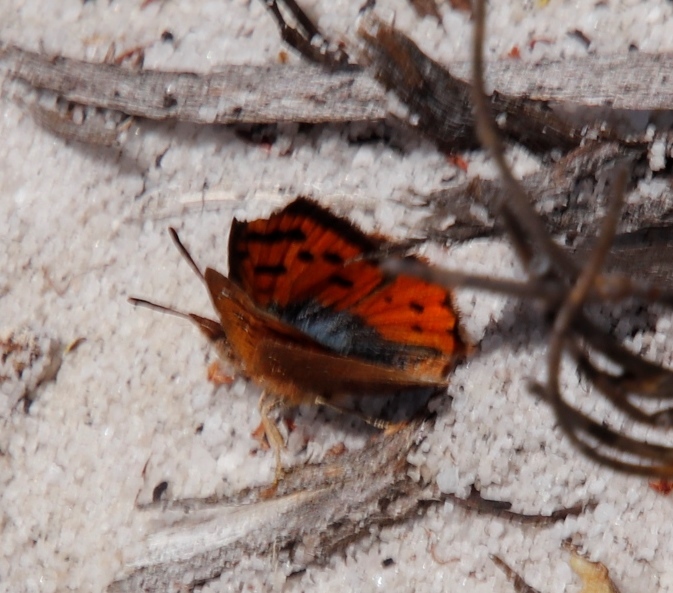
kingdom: Animalia
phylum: Arthropoda
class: Insecta
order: Lepidoptera
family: Lycaenidae
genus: Chrysoritis
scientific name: Chrysoritis pyroeis
